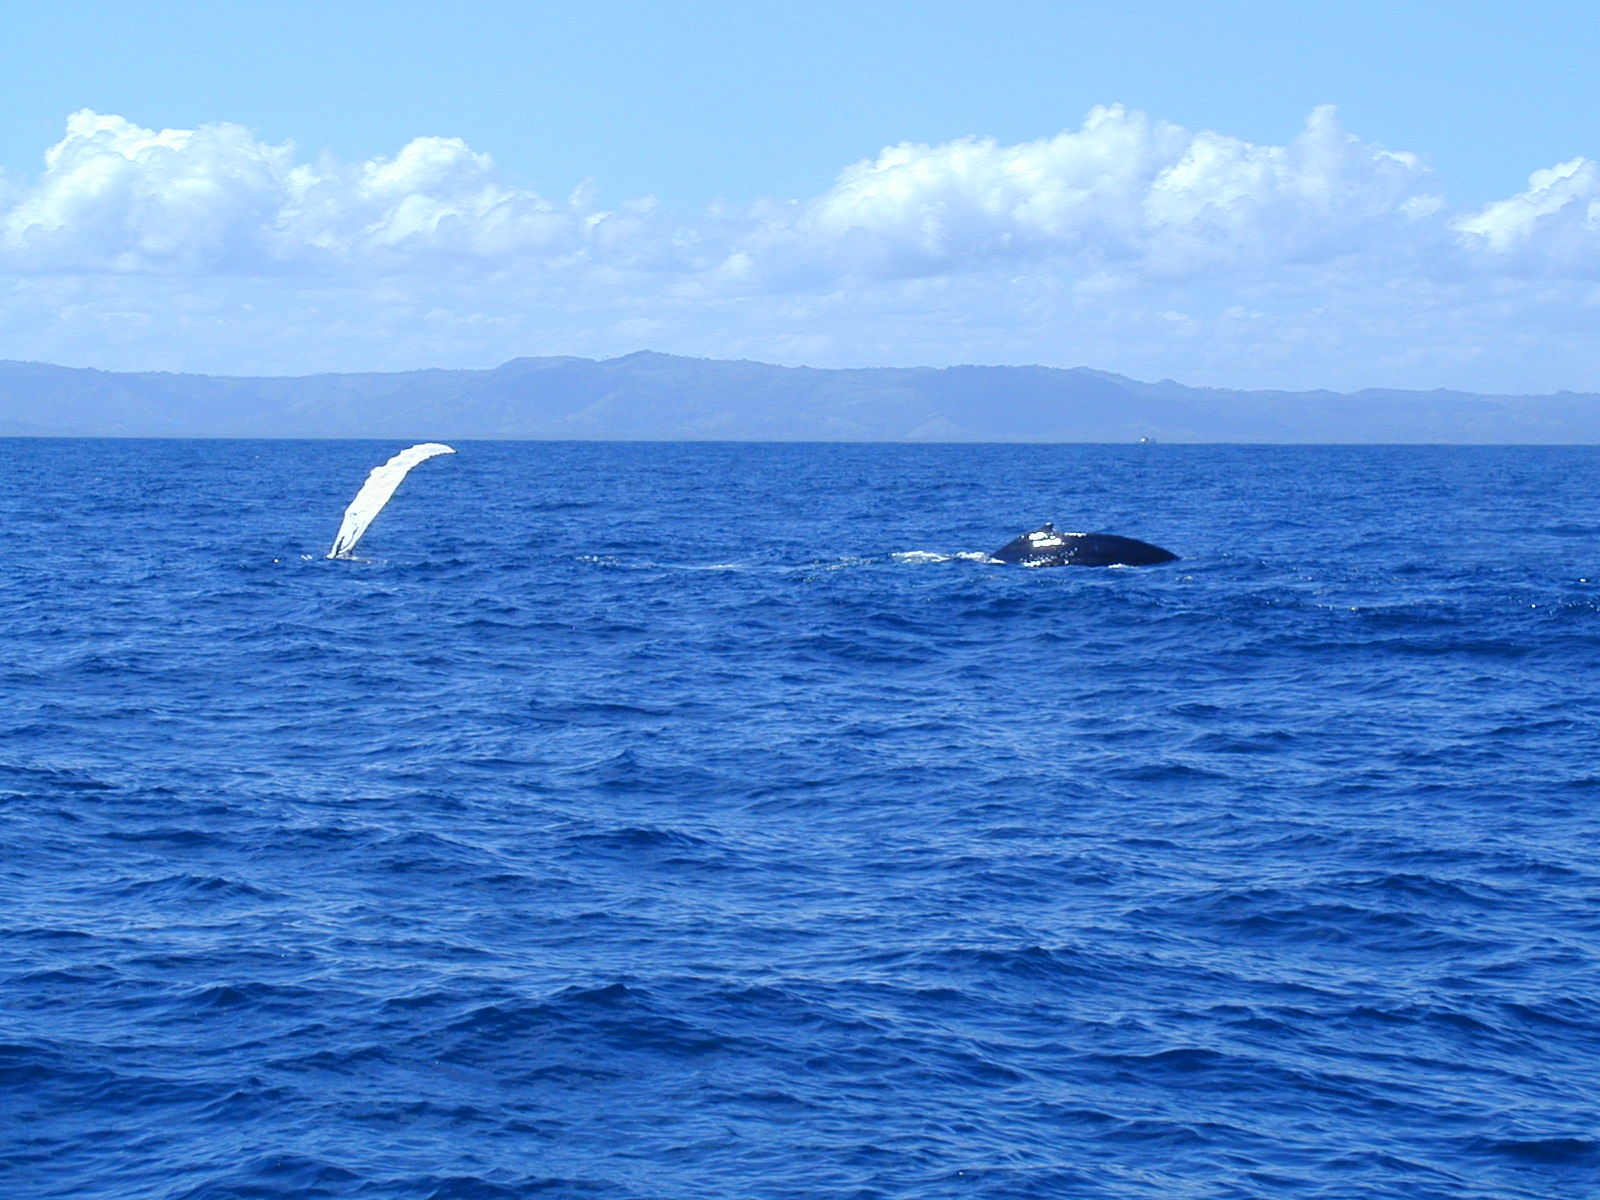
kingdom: Animalia
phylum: Chordata
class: Mammalia
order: Cetacea
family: Balaenopteridae
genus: Megaptera
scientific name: Megaptera novaeangliae
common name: Humpback whale
